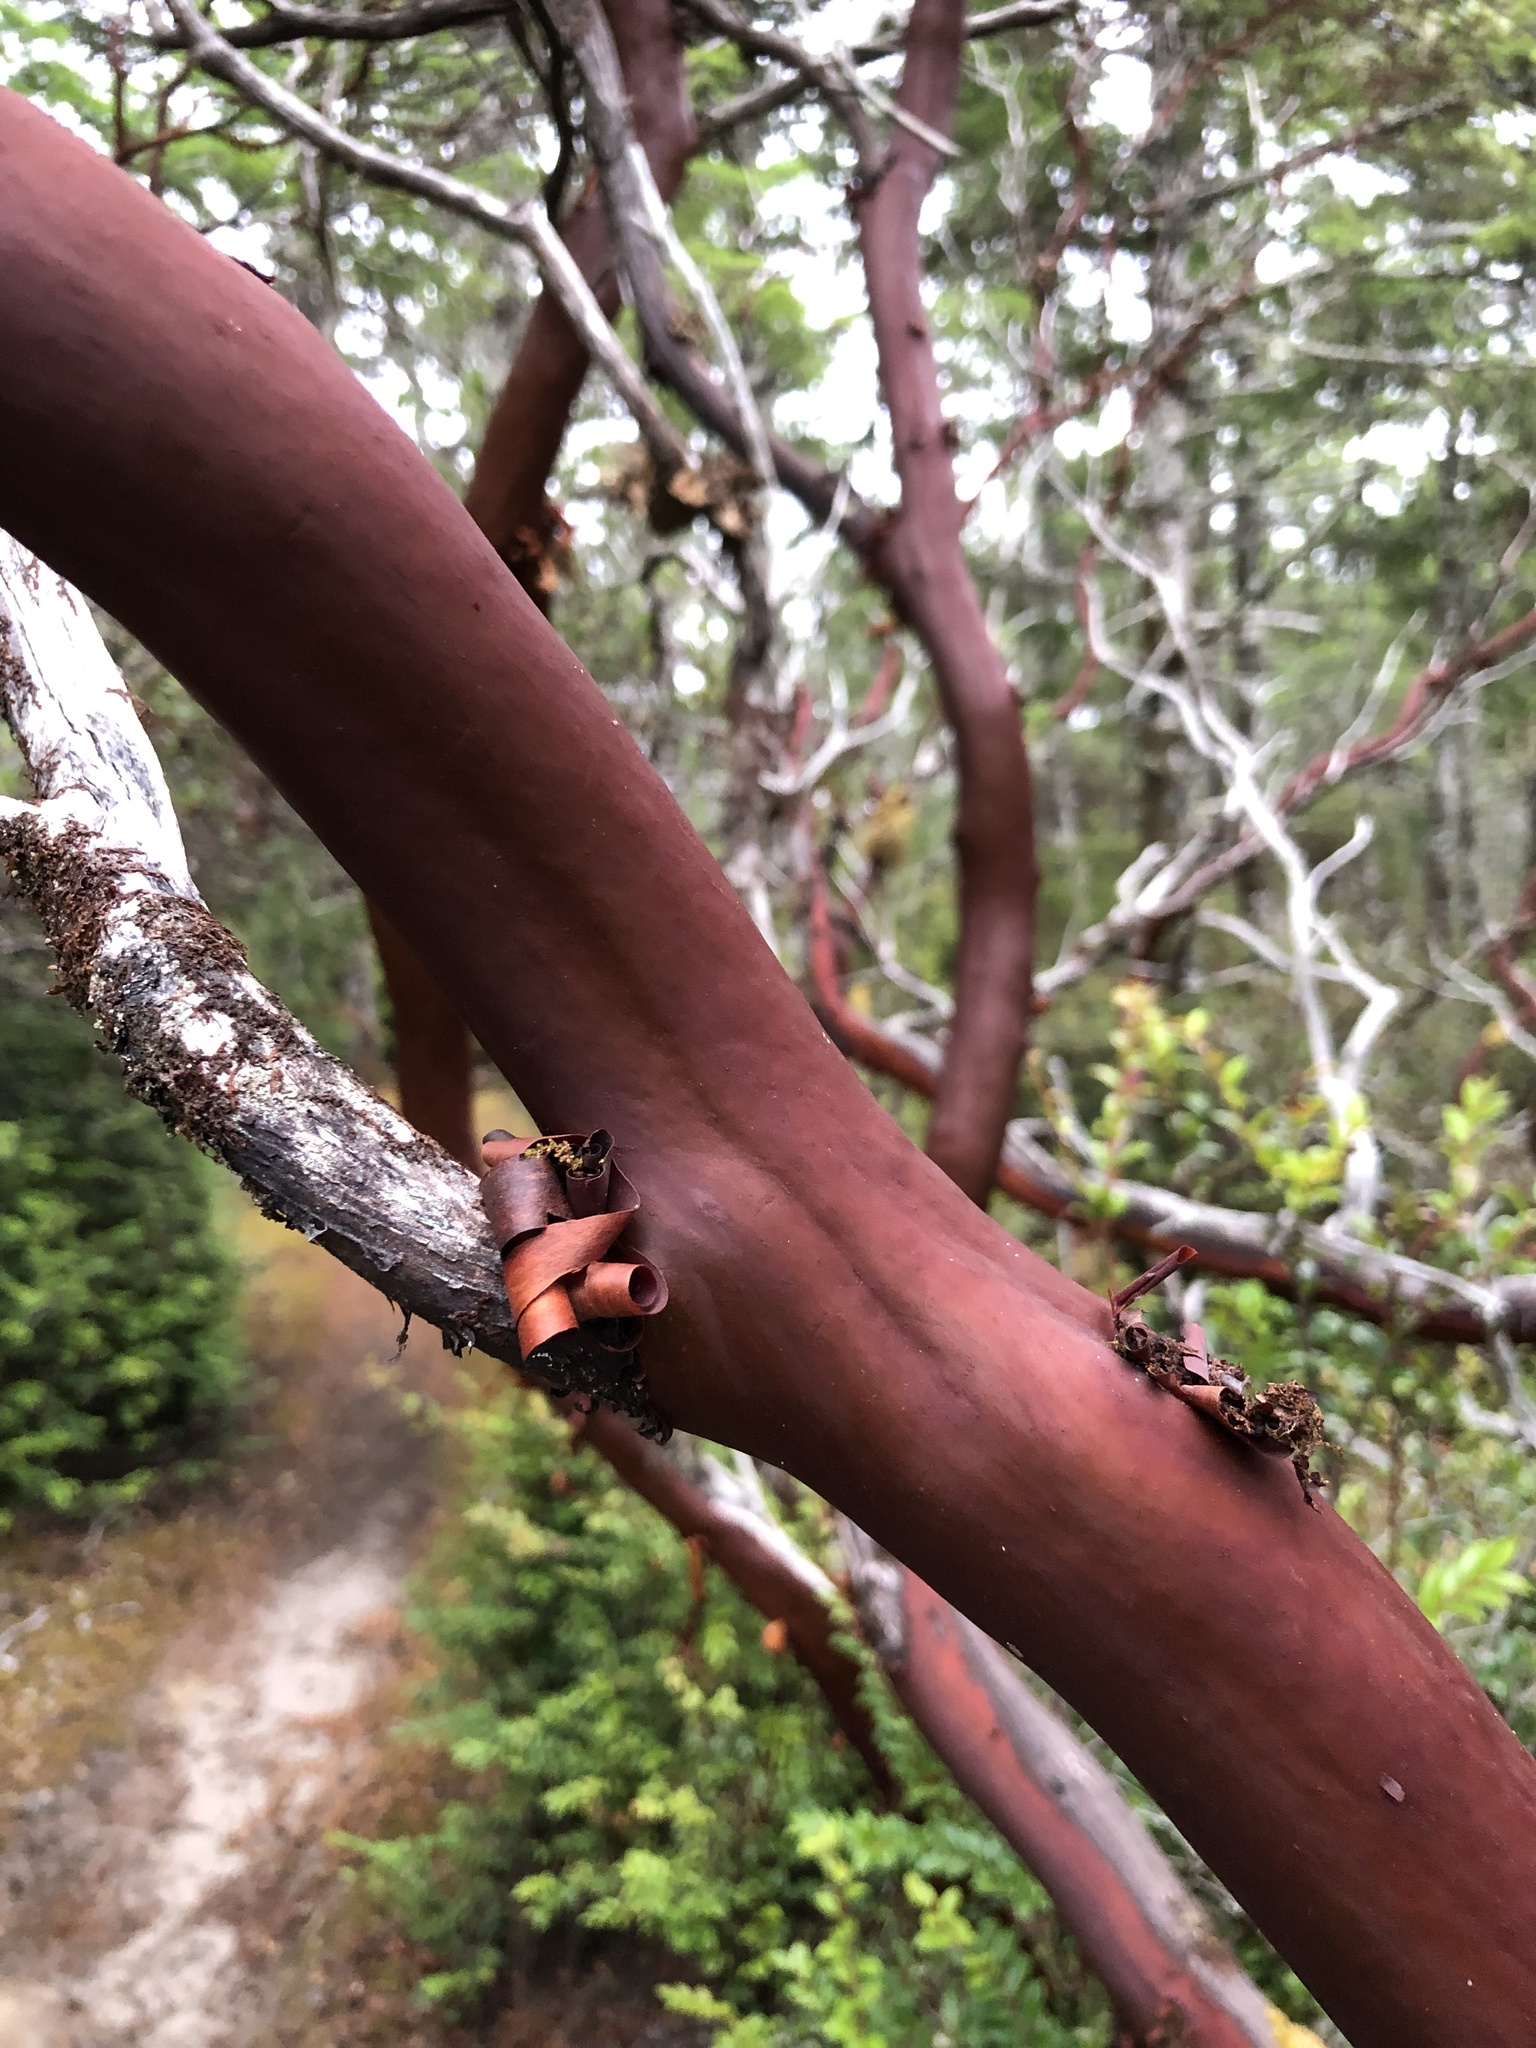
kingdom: Plantae
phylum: Tracheophyta
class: Magnoliopsida
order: Ericales
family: Ericaceae
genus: Arctostaphylos
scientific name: Arctostaphylos columbiana
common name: Bristly bearberry
